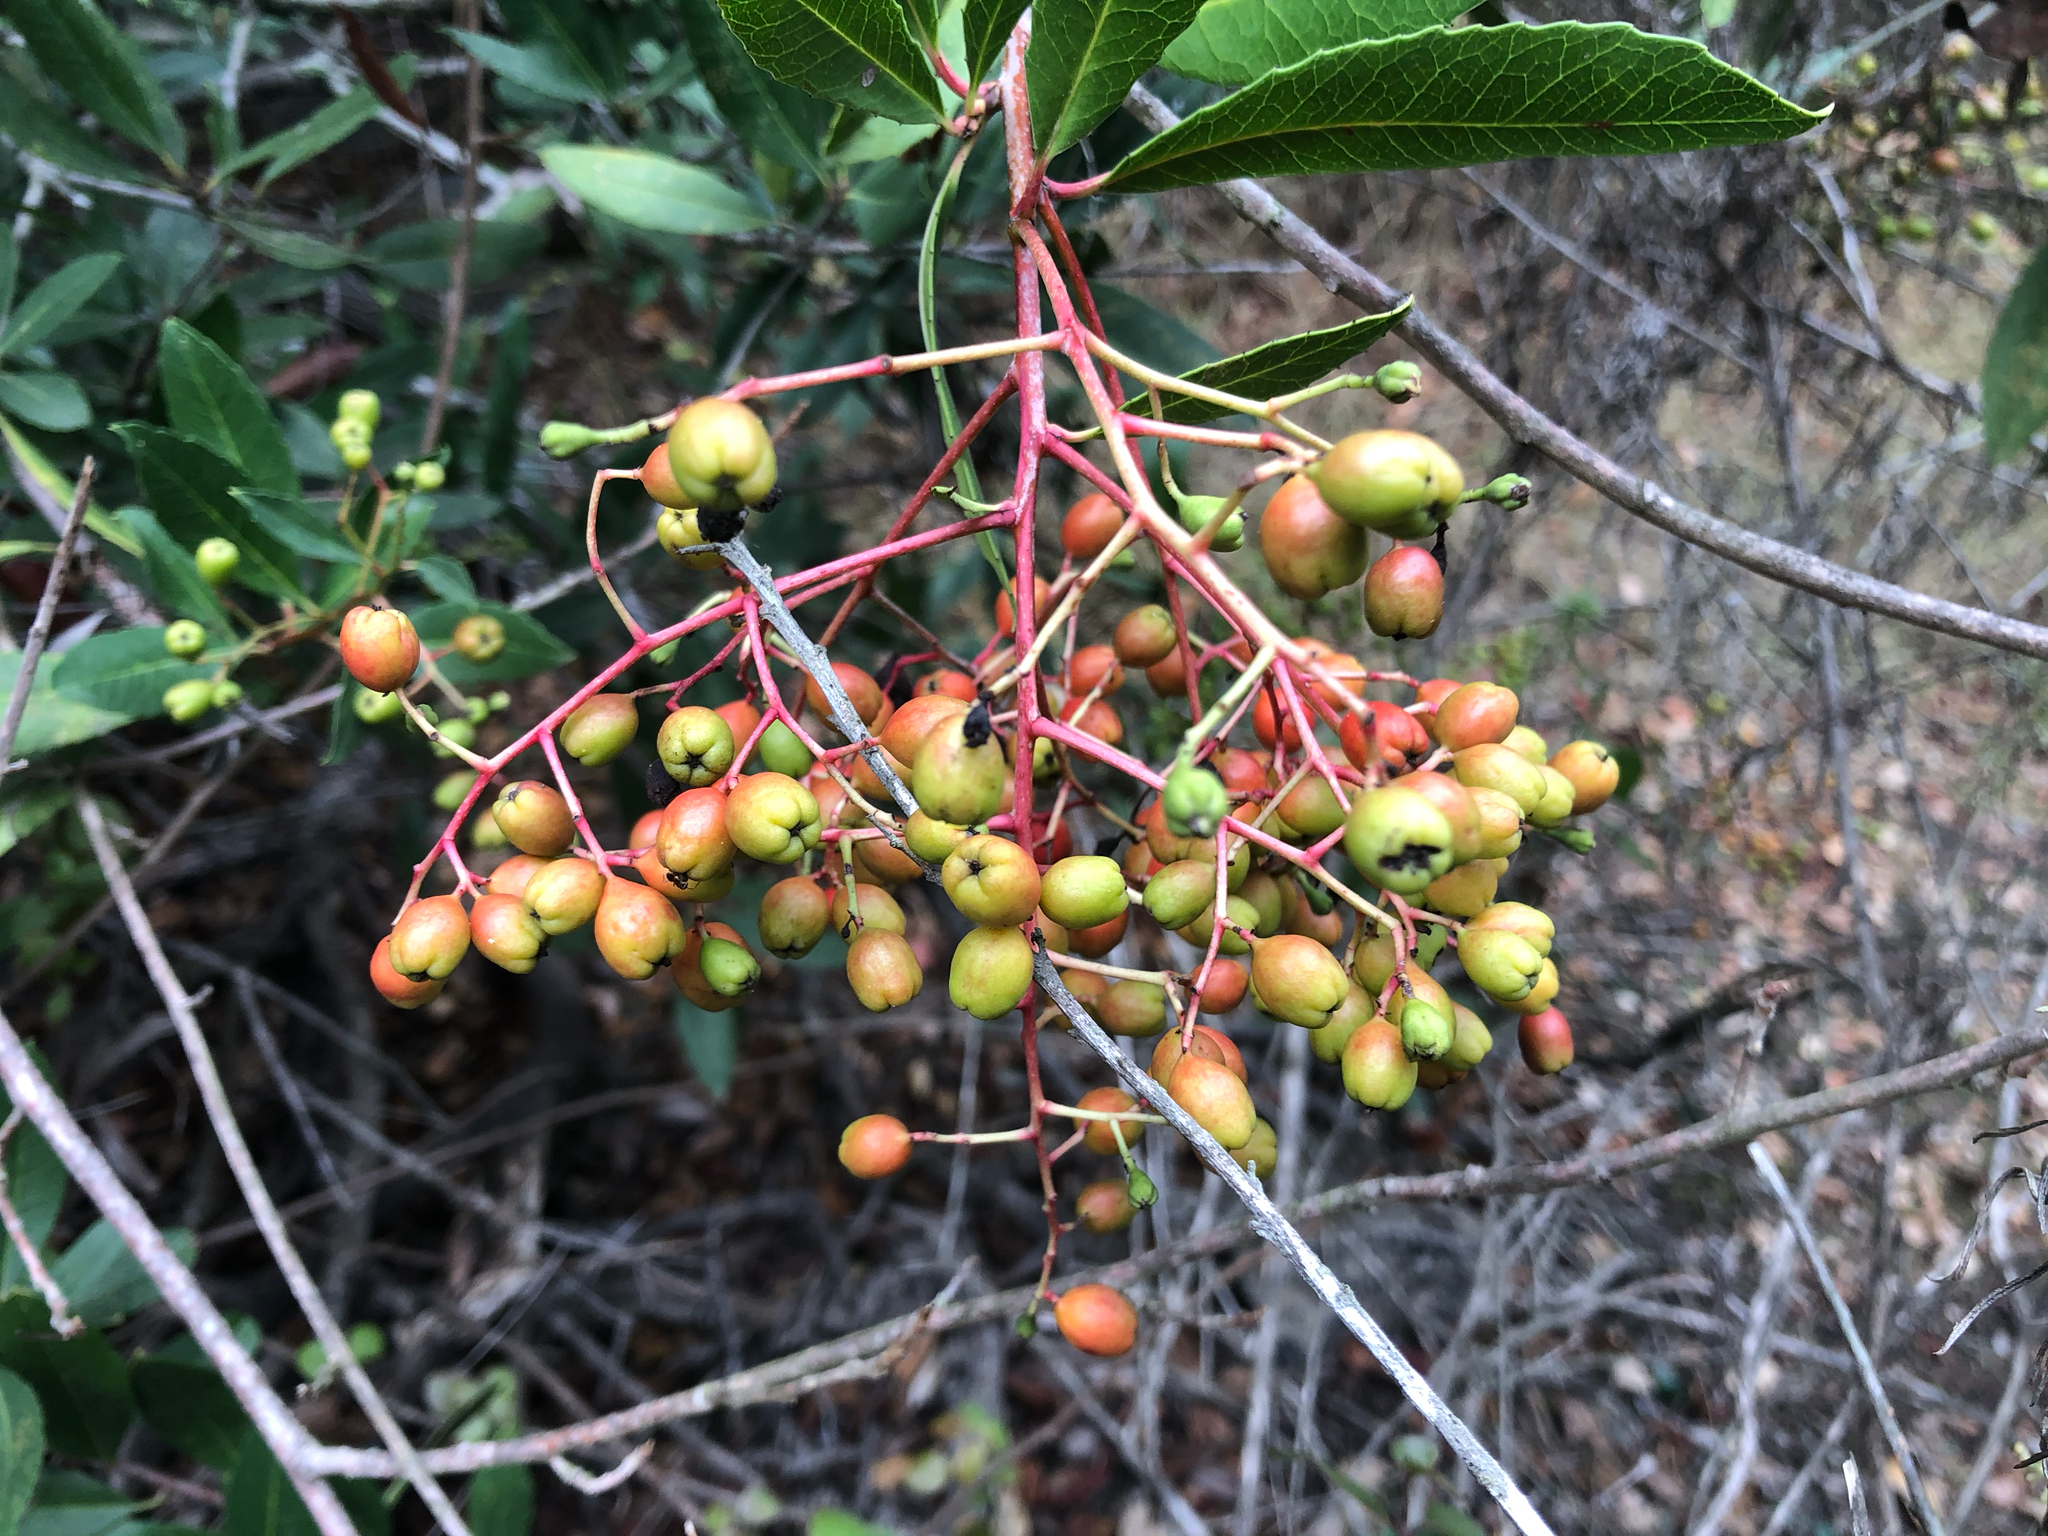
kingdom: Plantae
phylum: Tracheophyta
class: Magnoliopsida
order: Rosales
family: Rosaceae
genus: Heteromeles
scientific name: Heteromeles arbutifolia
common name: California-holly
